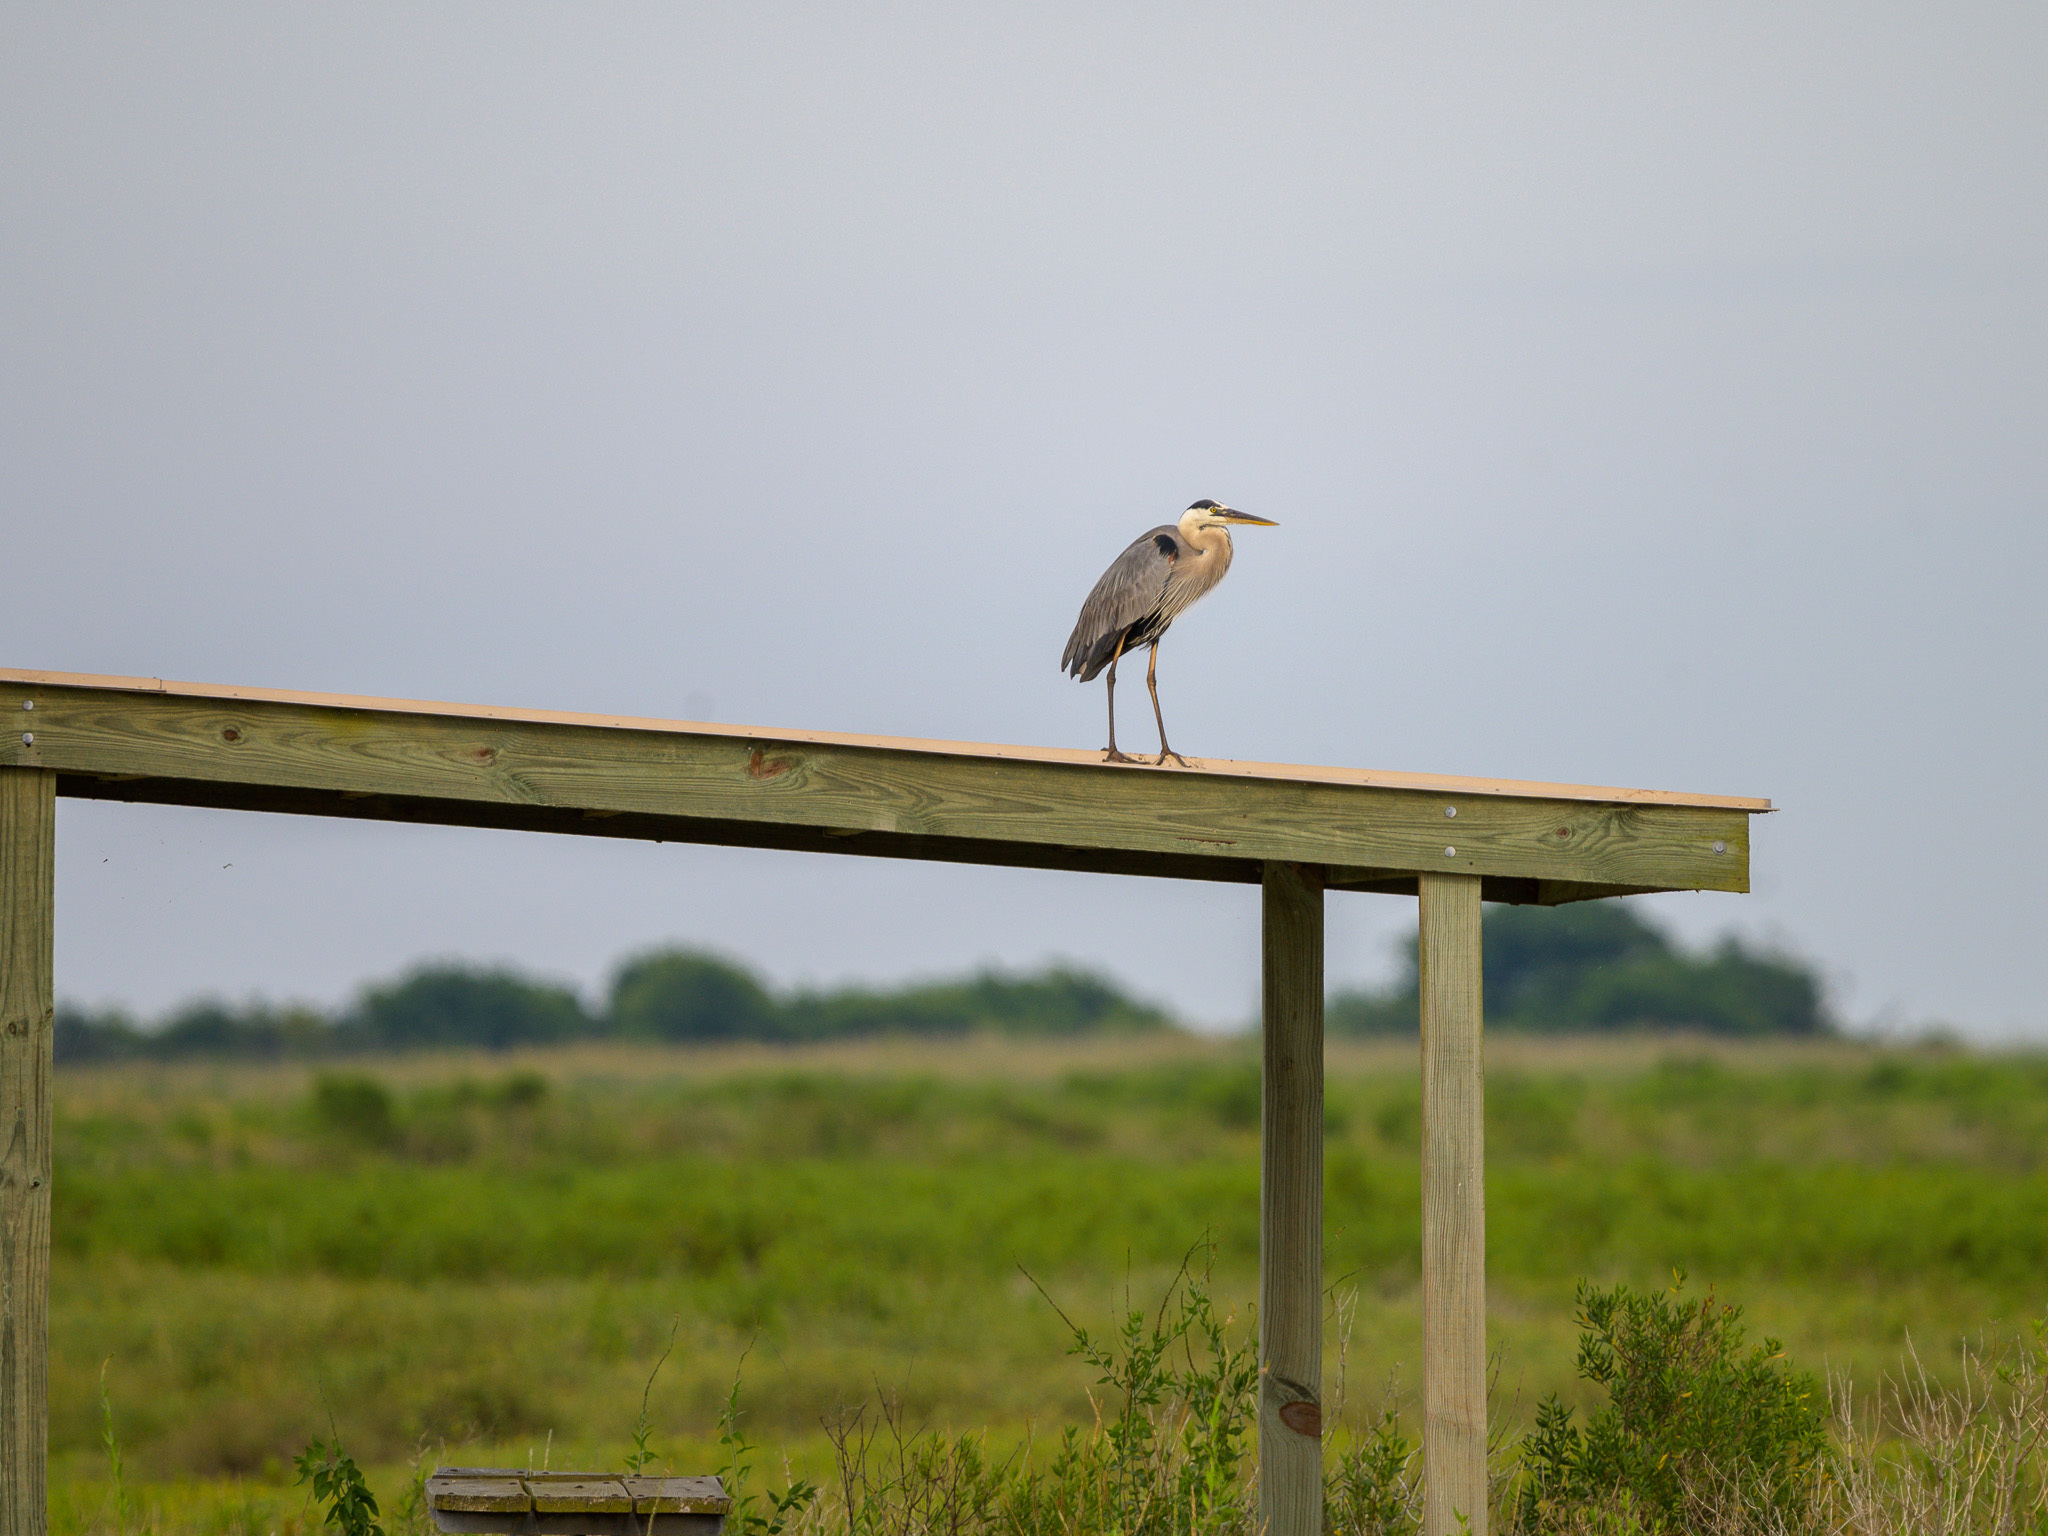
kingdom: Animalia
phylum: Chordata
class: Aves
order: Pelecaniformes
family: Ardeidae
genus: Ardea
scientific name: Ardea herodias
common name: Great blue heron
